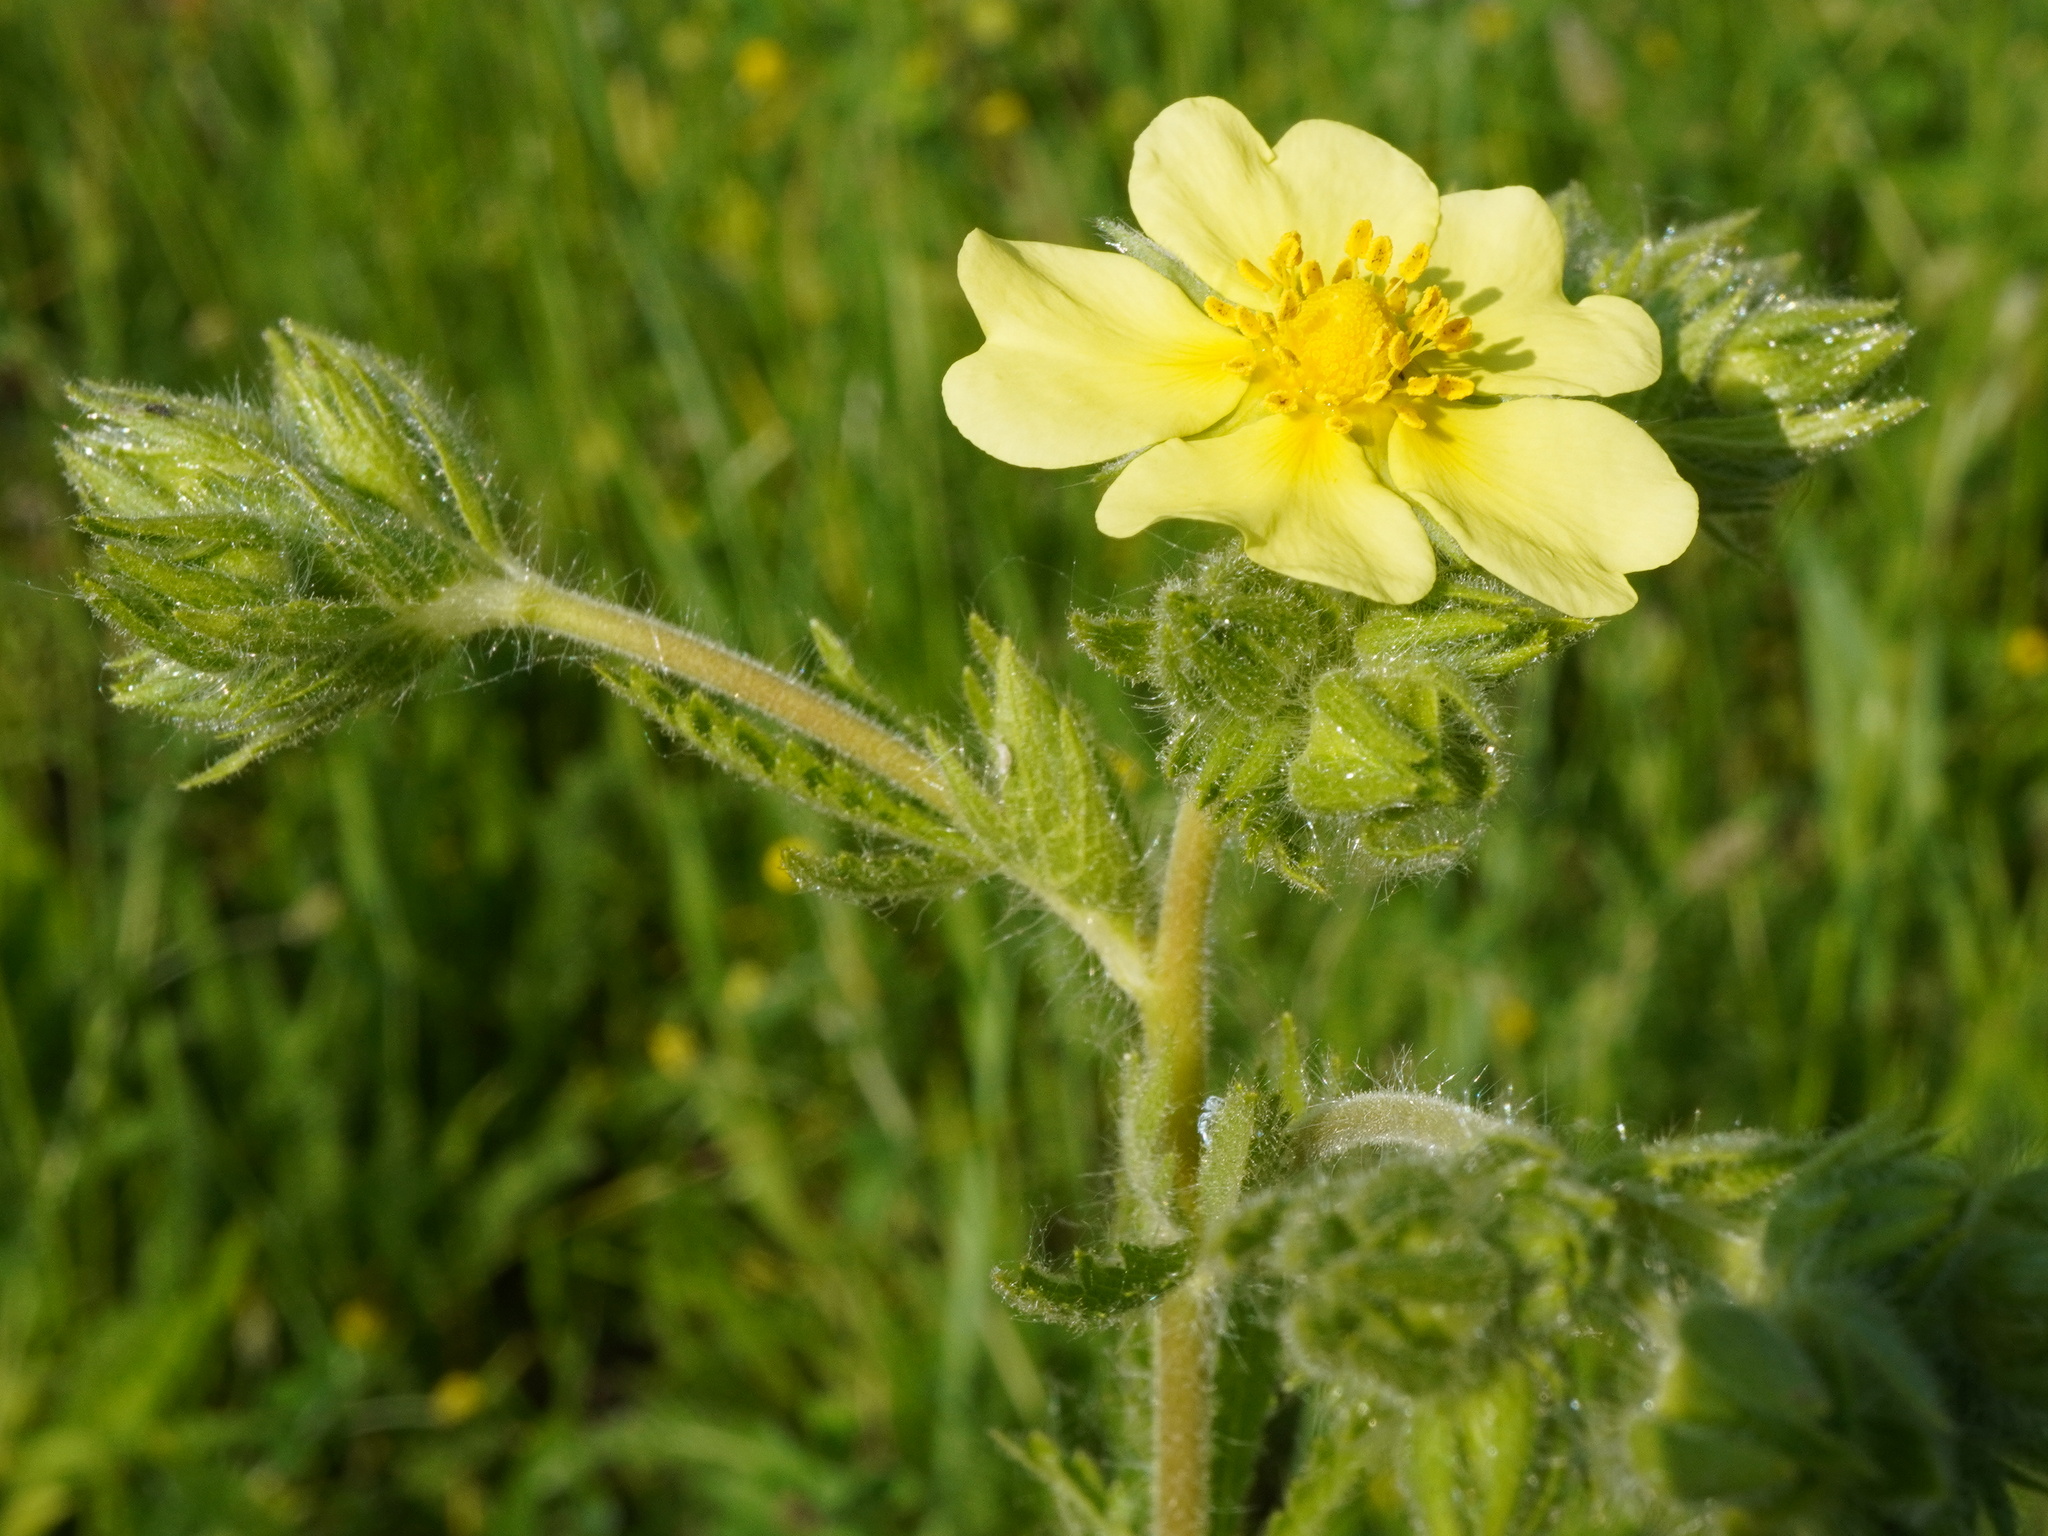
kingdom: Plantae
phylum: Tracheophyta
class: Magnoliopsida
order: Rosales
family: Rosaceae
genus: Potentilla
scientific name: Potentilla recta
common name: Sulphur cinquefoil
